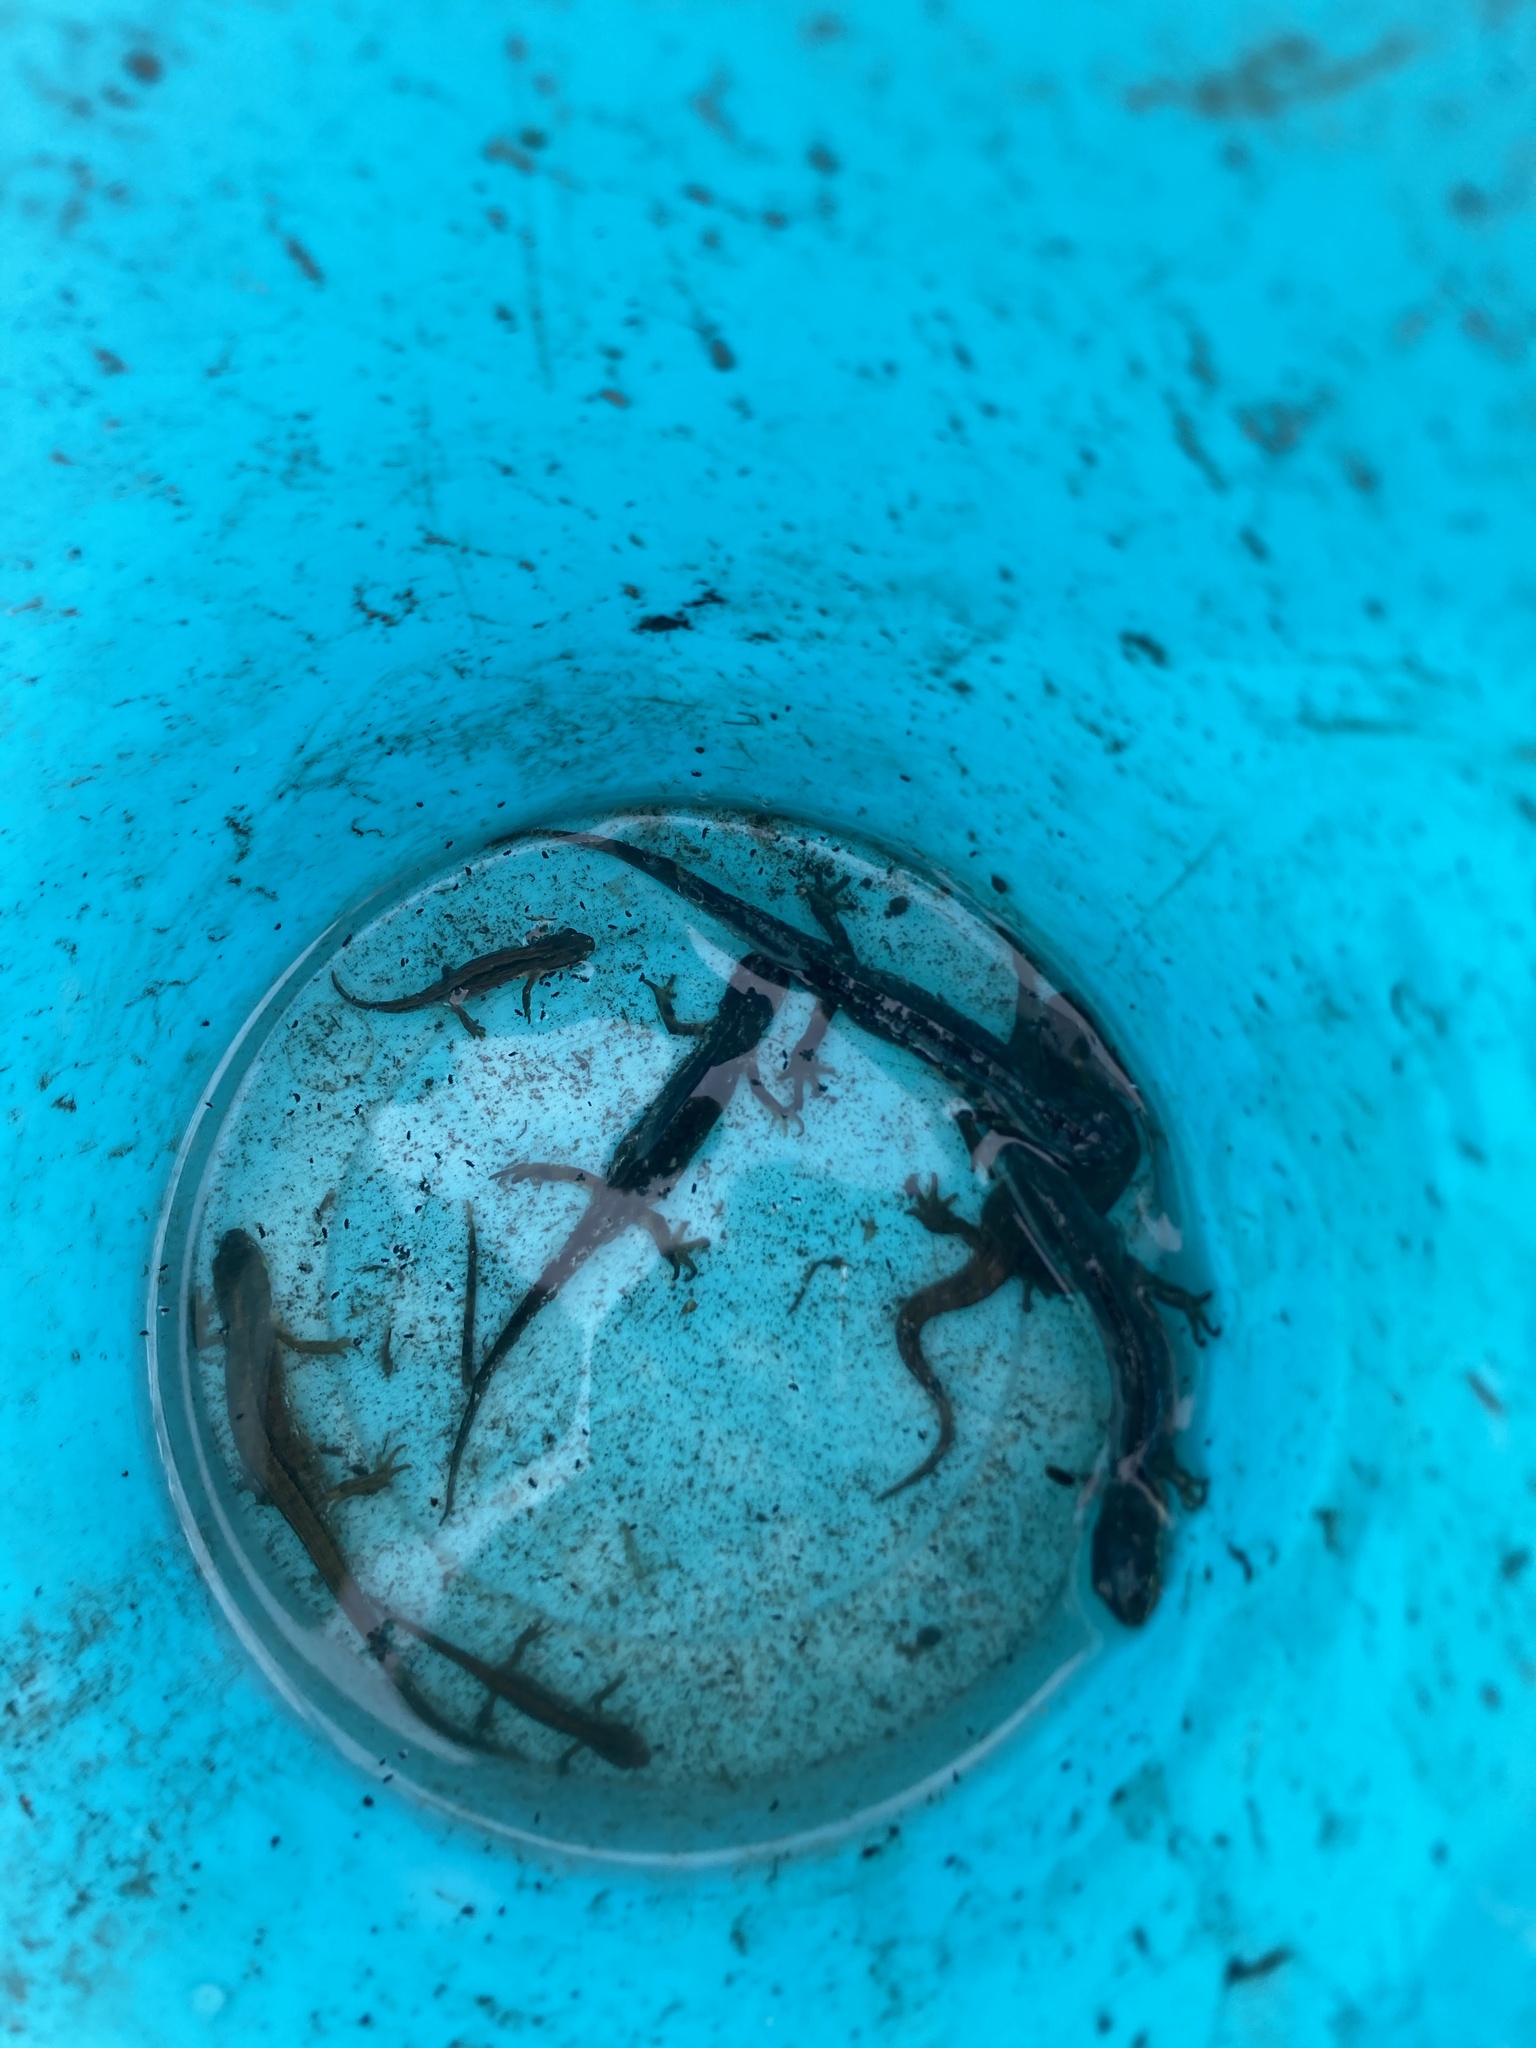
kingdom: Animalia
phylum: Chordata
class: Amphibia
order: Caudata
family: Salamandridae
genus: Lissotriton
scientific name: Lissotriton vulgaris
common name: Smooth newt
